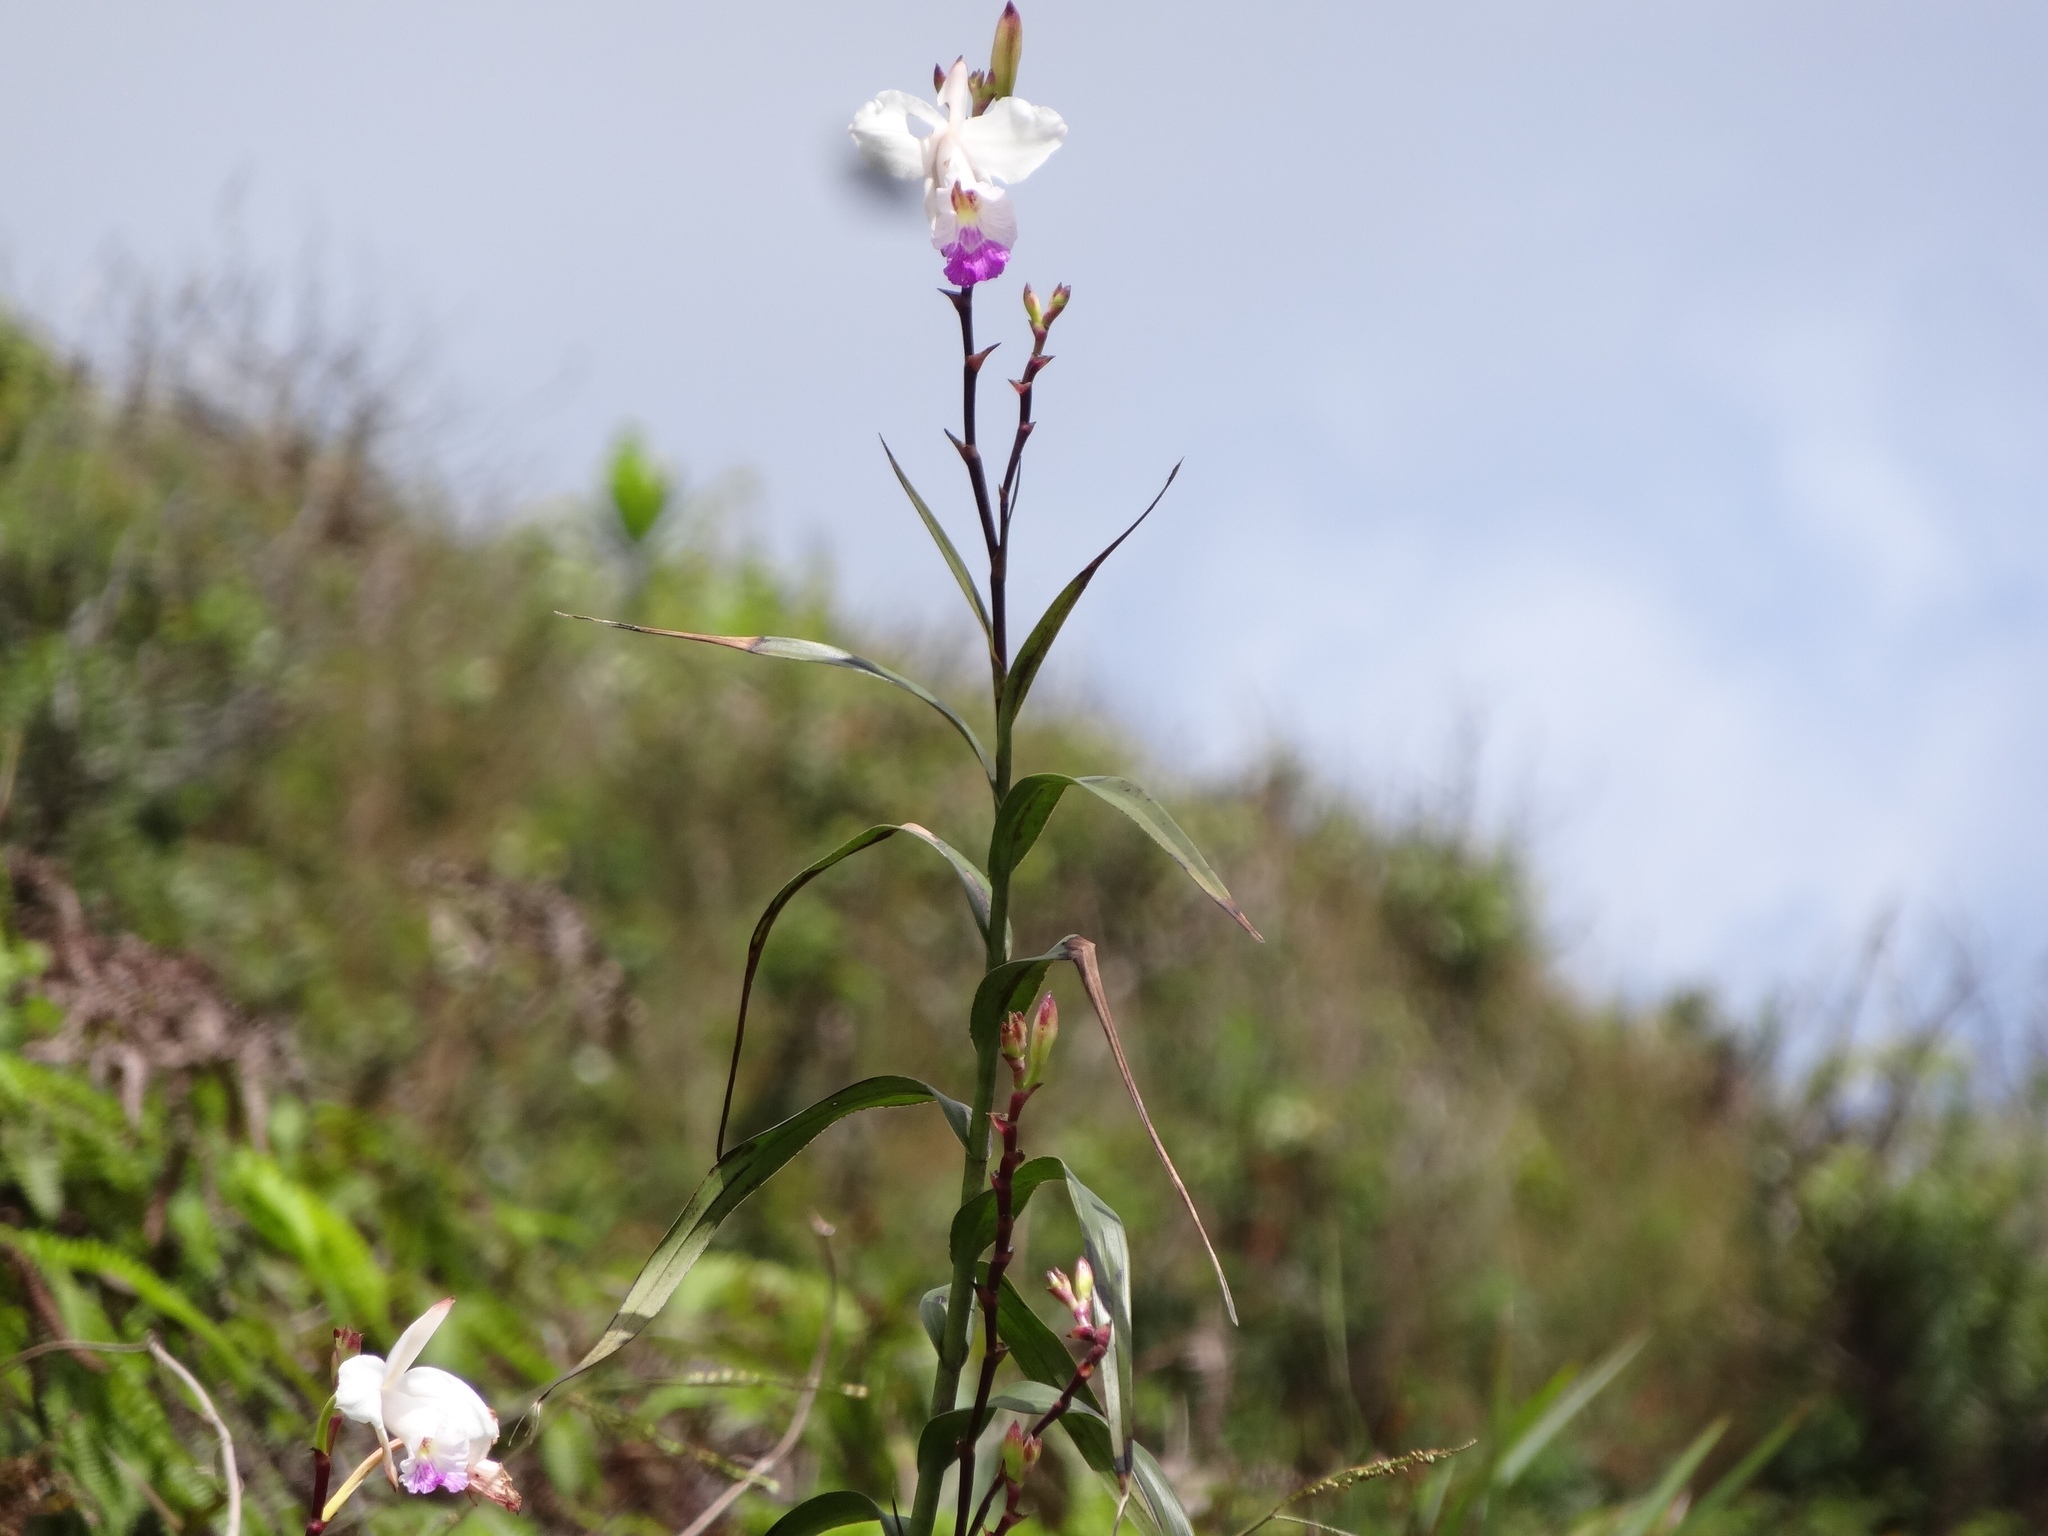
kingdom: Plantae
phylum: Tracheophyta
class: Liliopsida
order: Asparagales
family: Orchidaceae
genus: Arundina
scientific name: Arundina graminifolia
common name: Bamboo orchid
